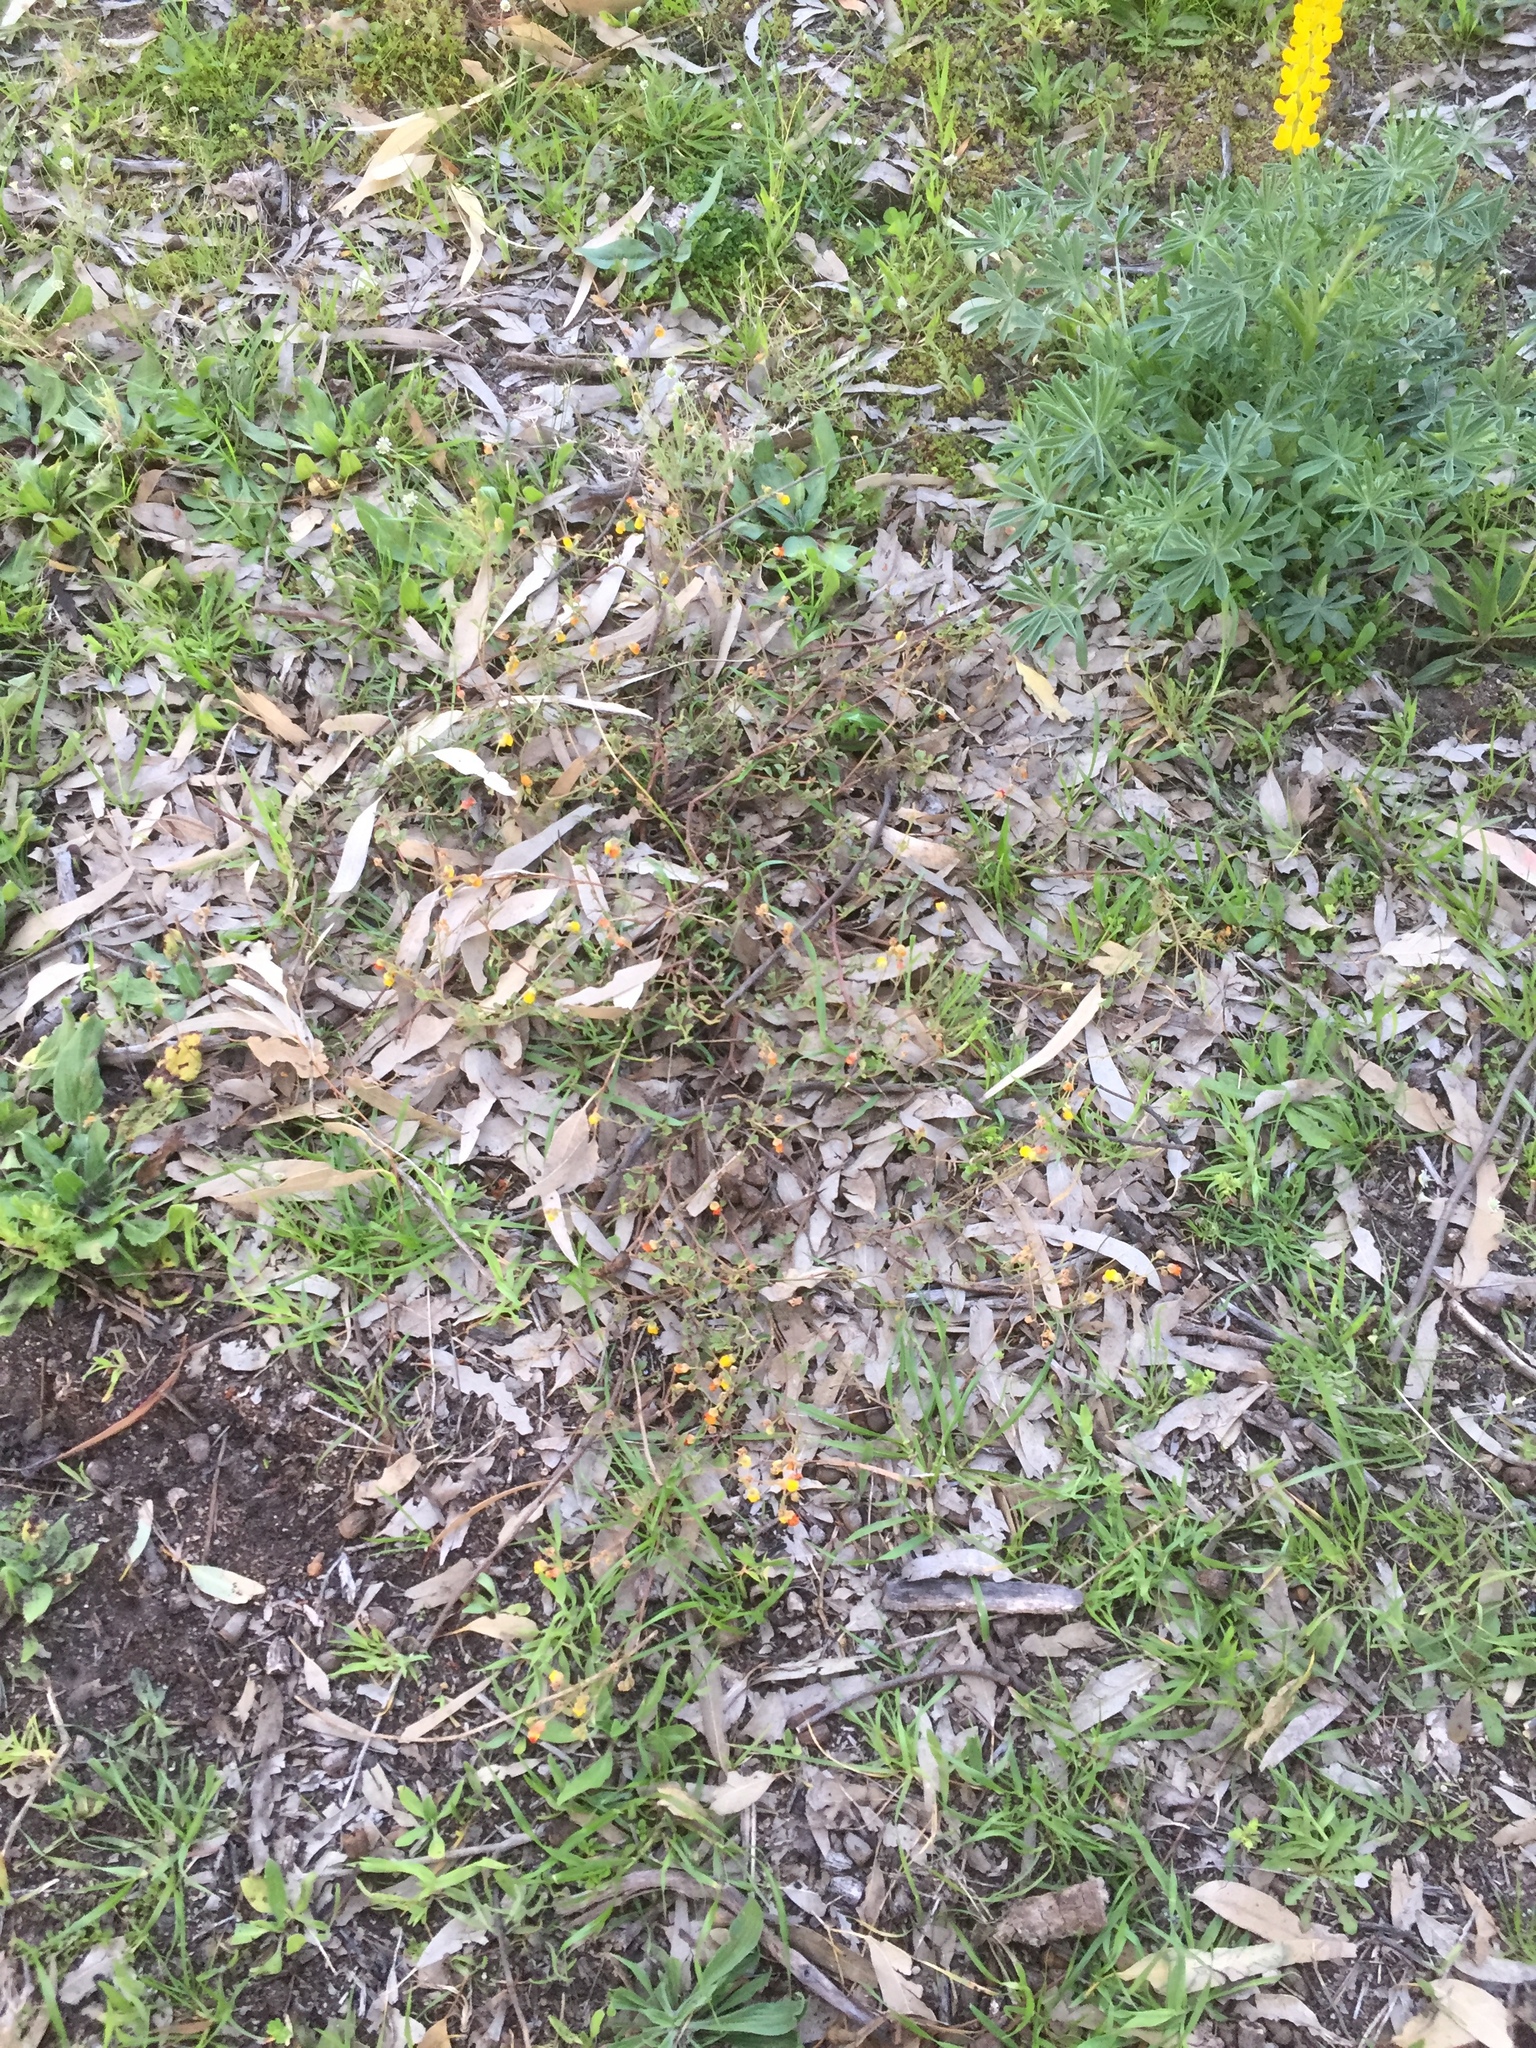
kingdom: Plantae
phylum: Tracheophyta
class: Magnoliopsida
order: Malvales
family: Malvaceae
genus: Hermannia
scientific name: Hermannia multiflora
